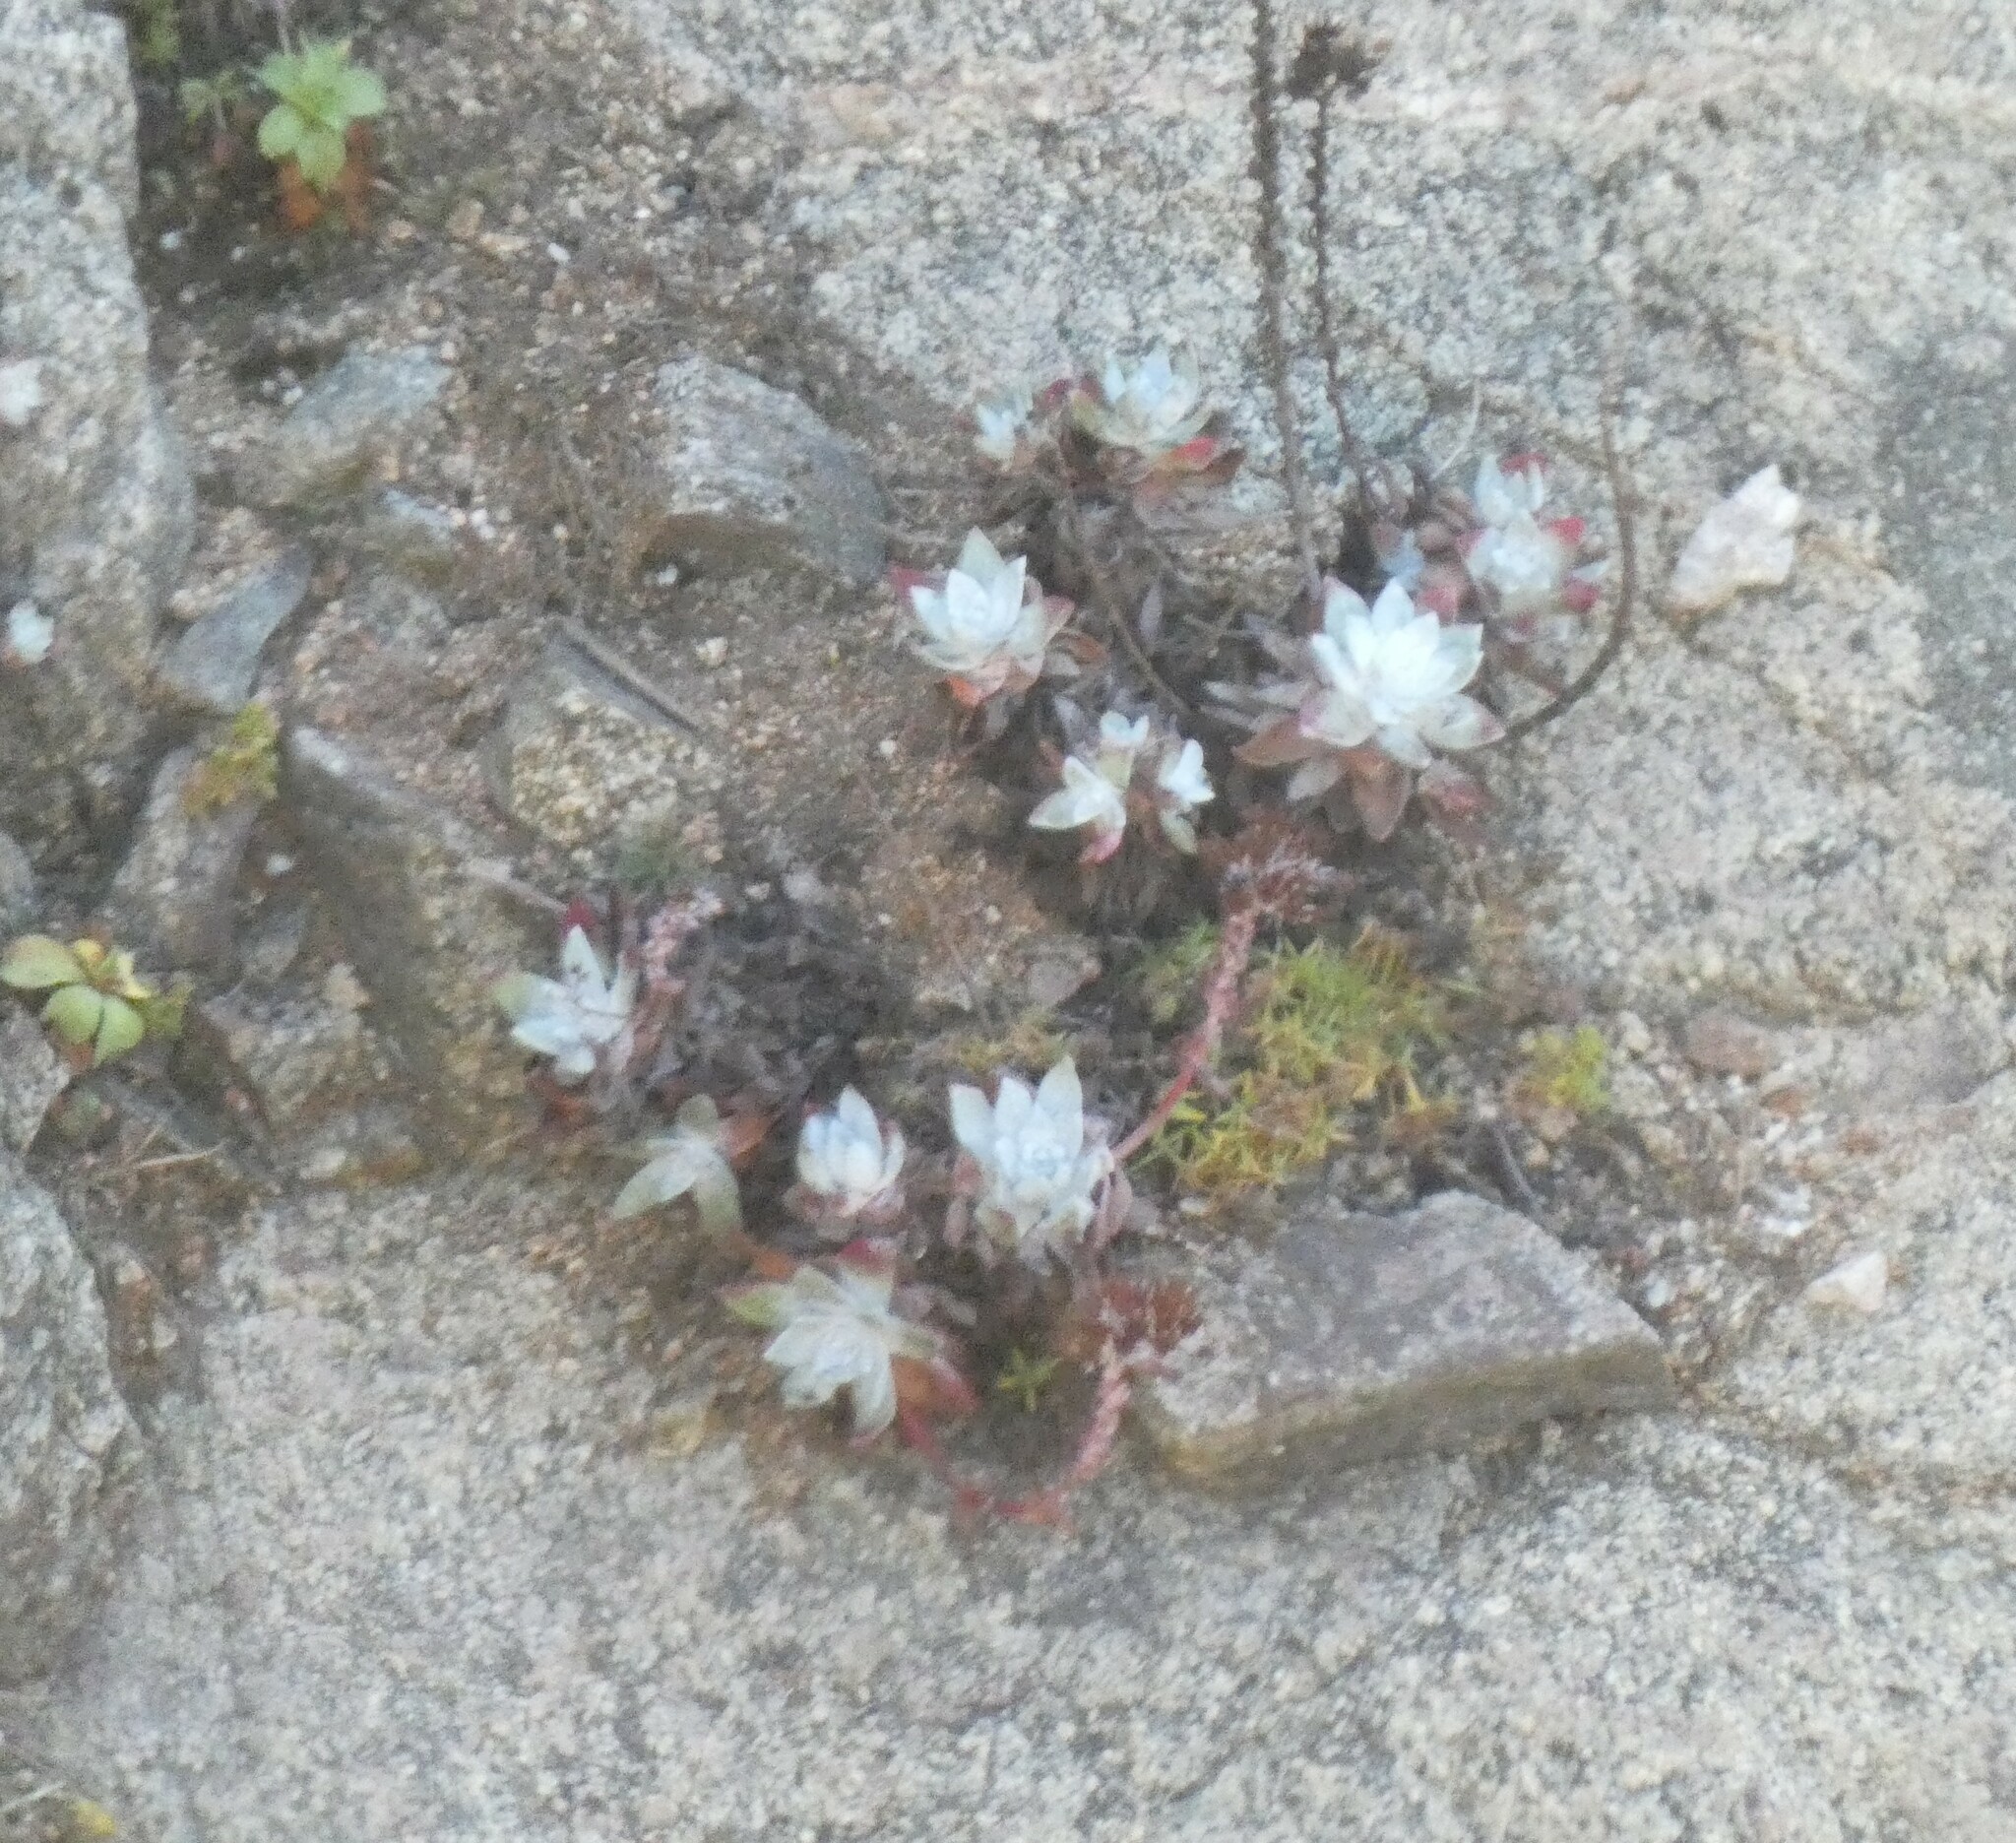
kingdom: Plantae
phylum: Tracheophyta
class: Magnoliopsida
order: Saxifragales
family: Crassulaceae
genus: Dudleya
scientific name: Dudleya farinosa
